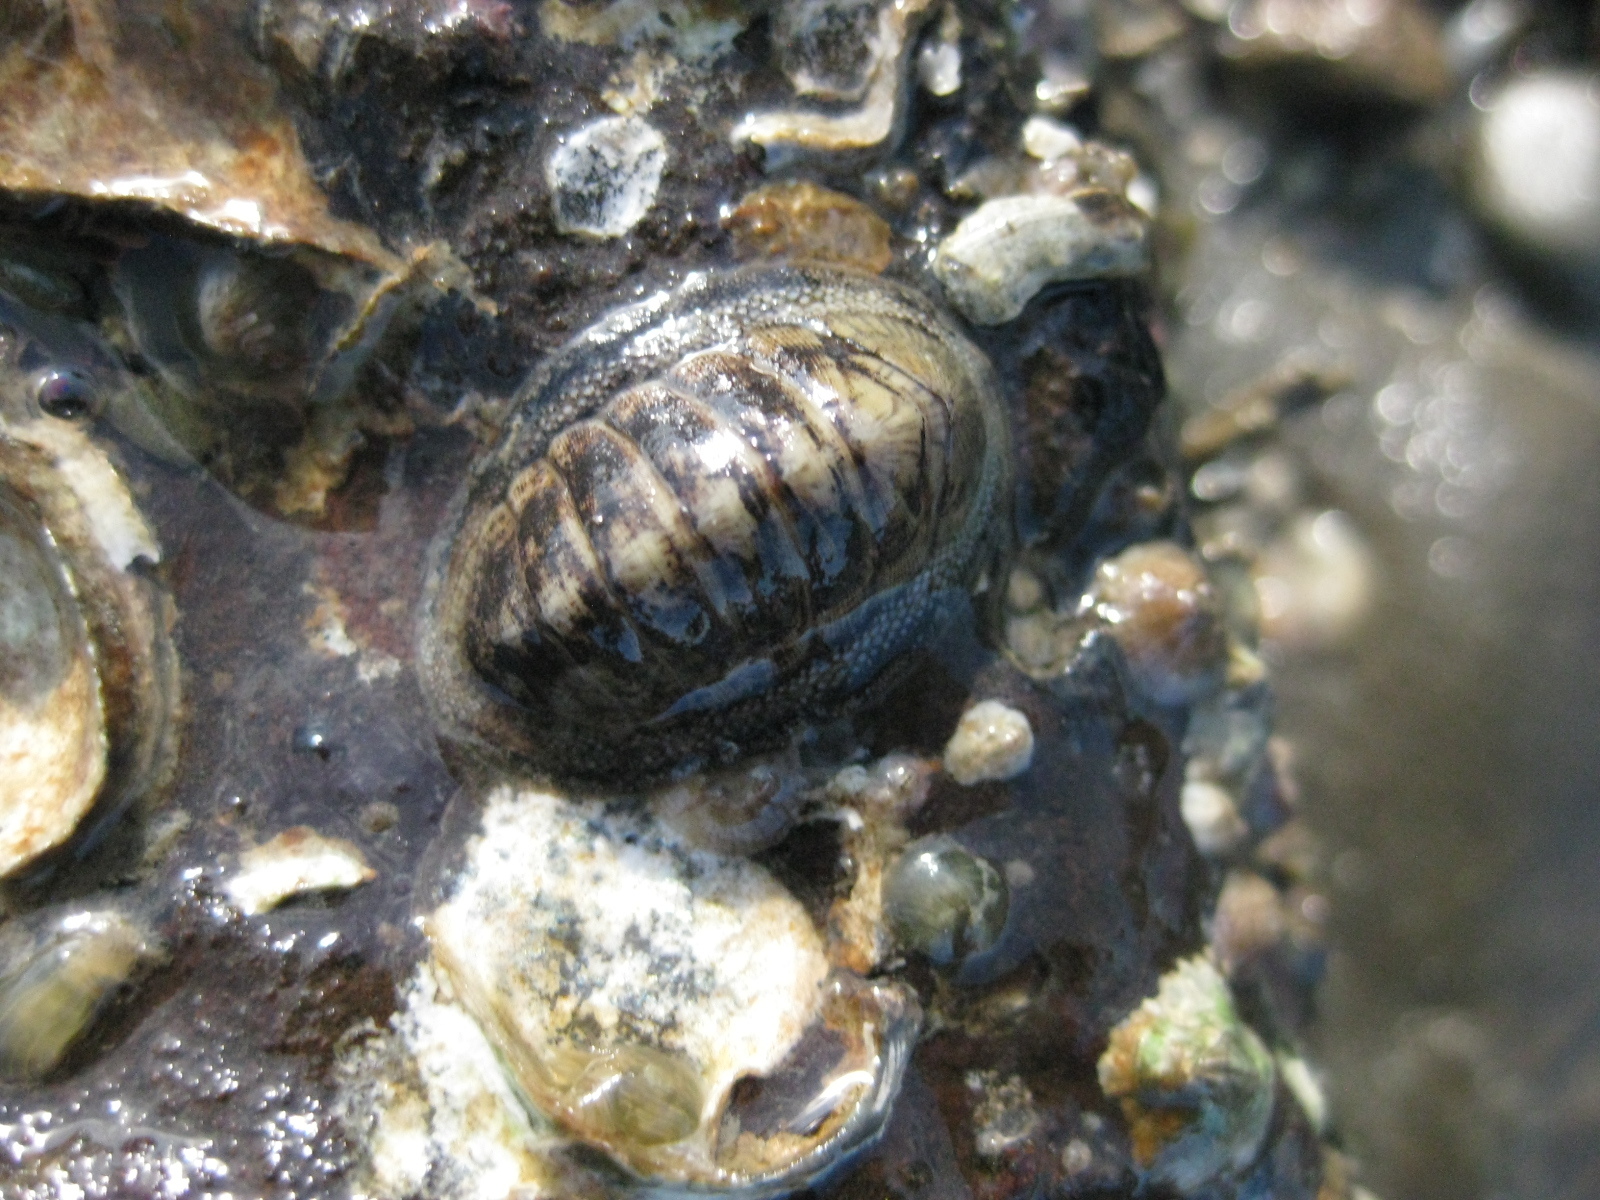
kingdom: Animalia
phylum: Mollusca
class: Polyplacophora
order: Chitonida
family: Chitonidae
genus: Chiton
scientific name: Chiton glaucus
